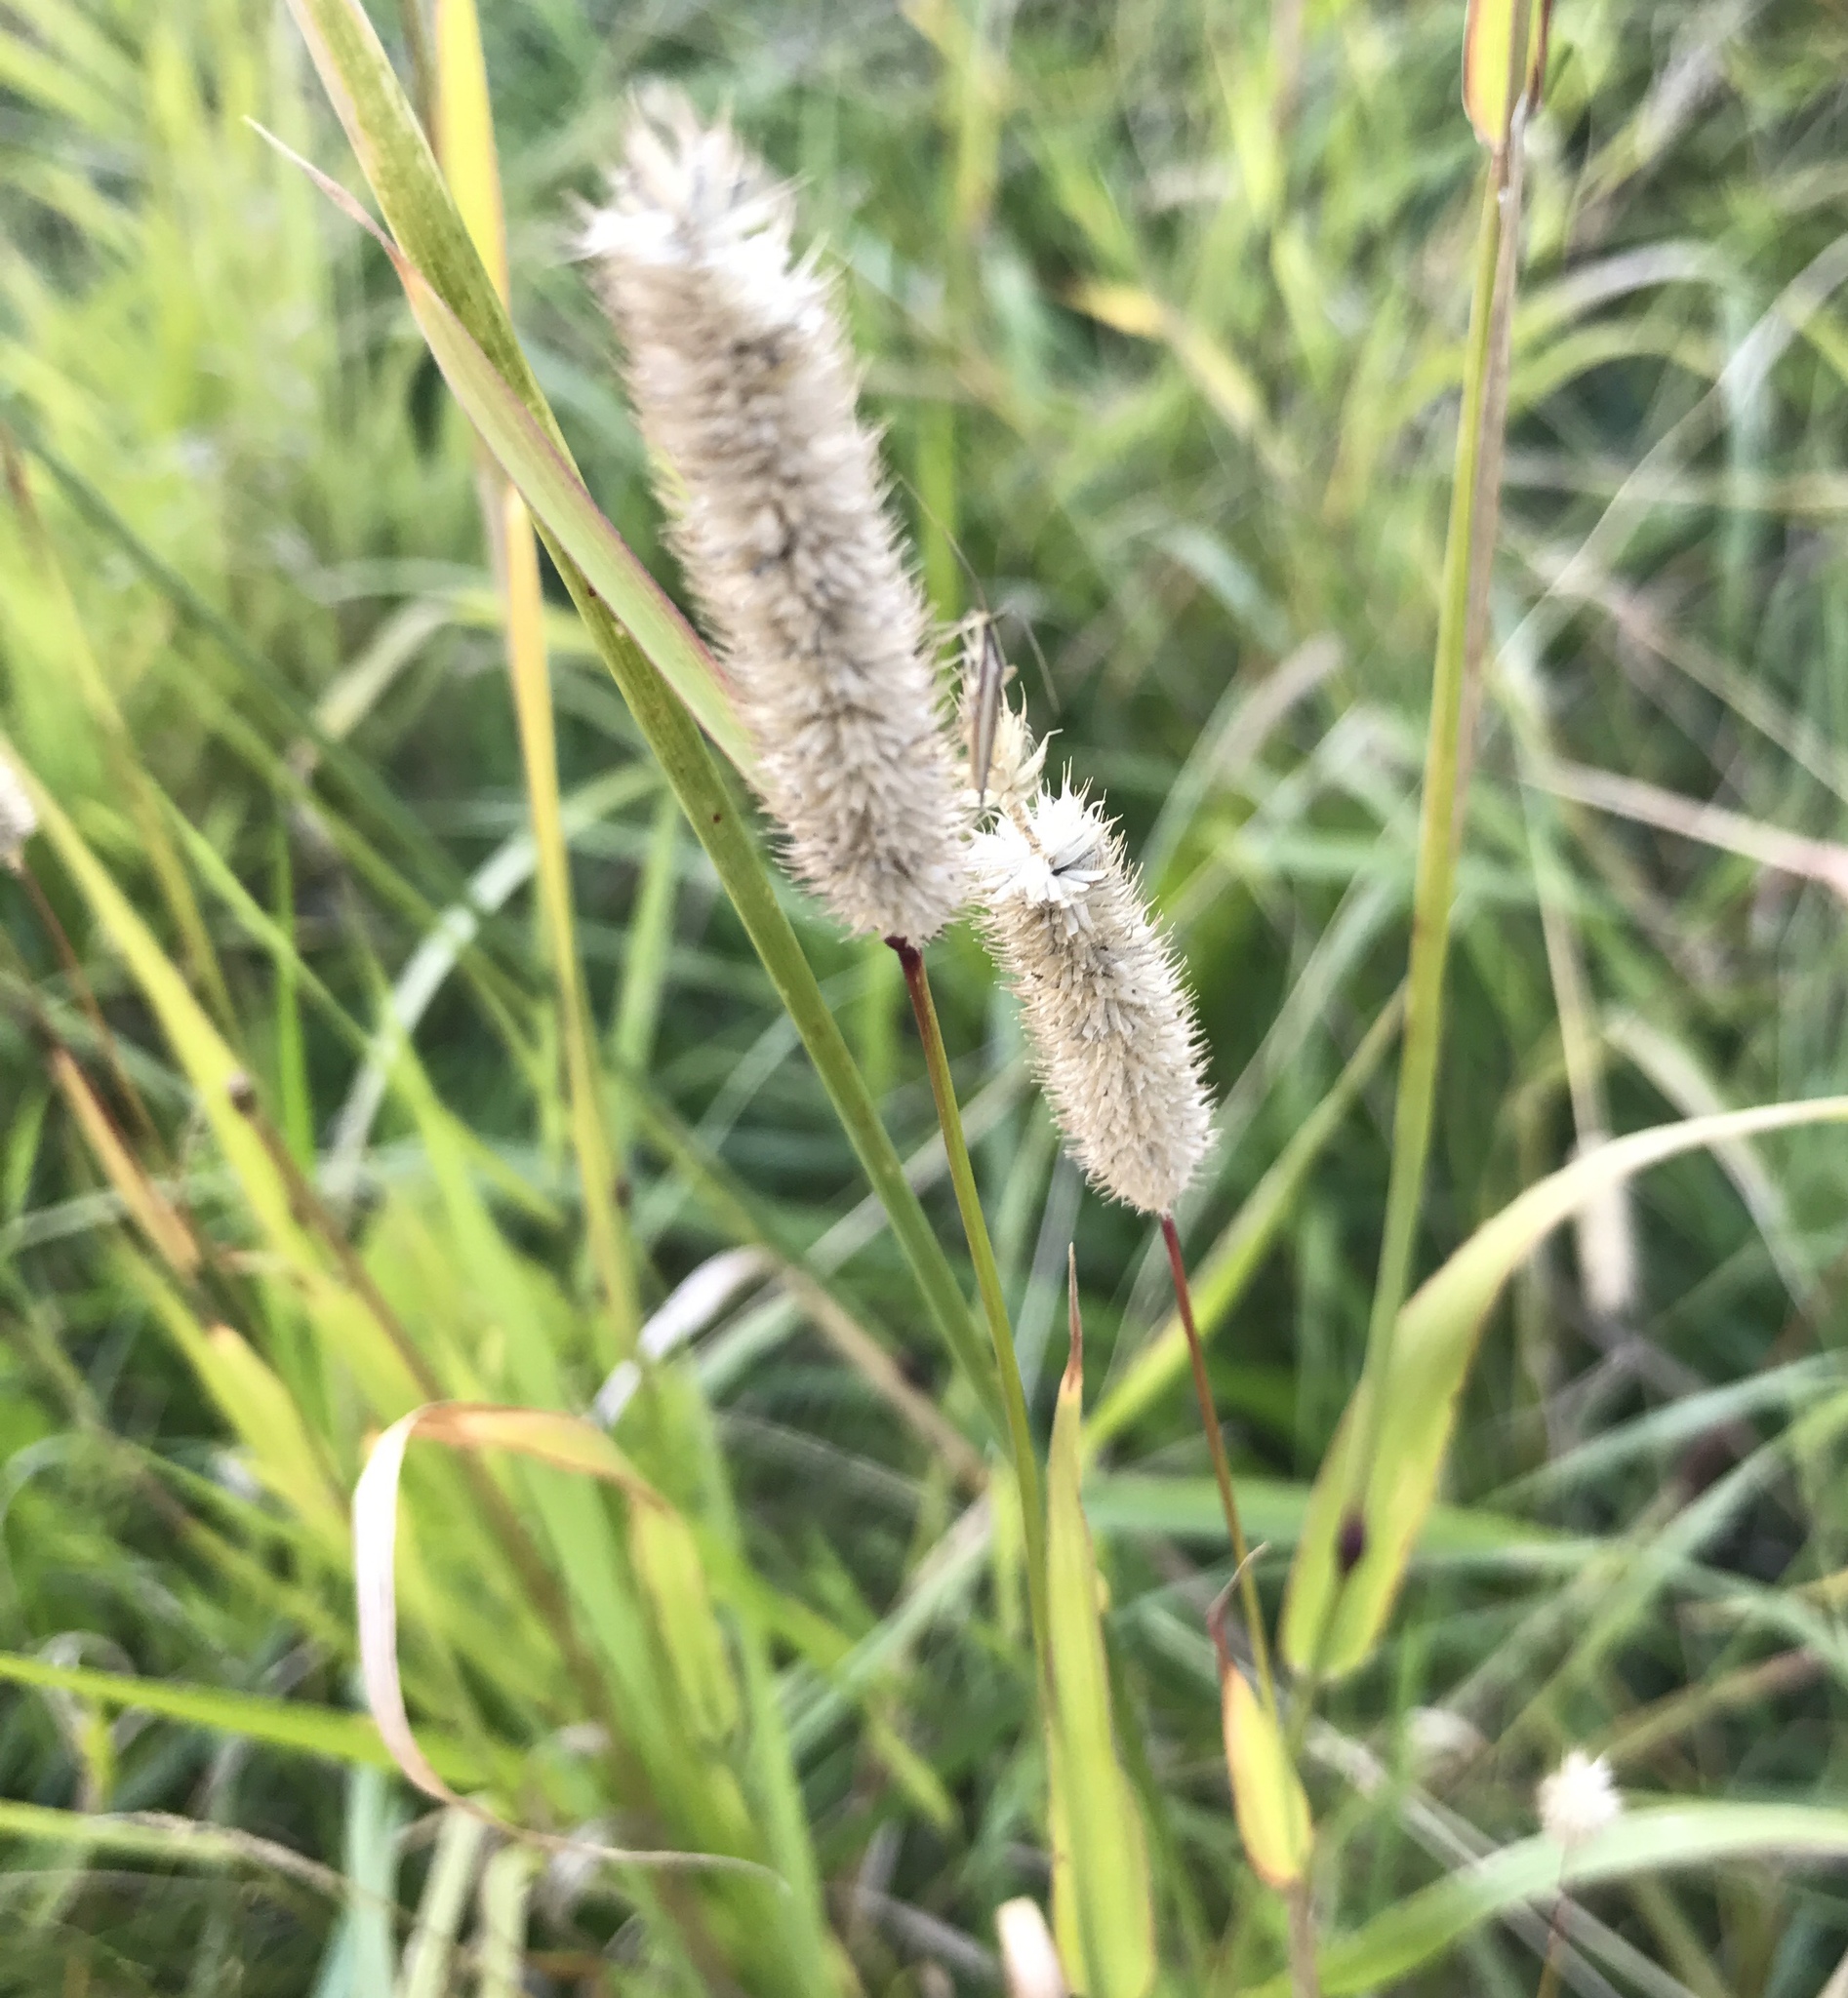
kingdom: Plantae
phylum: Tracheophyta
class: Liliopsida
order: Poales
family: Poaceae
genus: Phleum
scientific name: Phleum pratense
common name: Timothy grass
